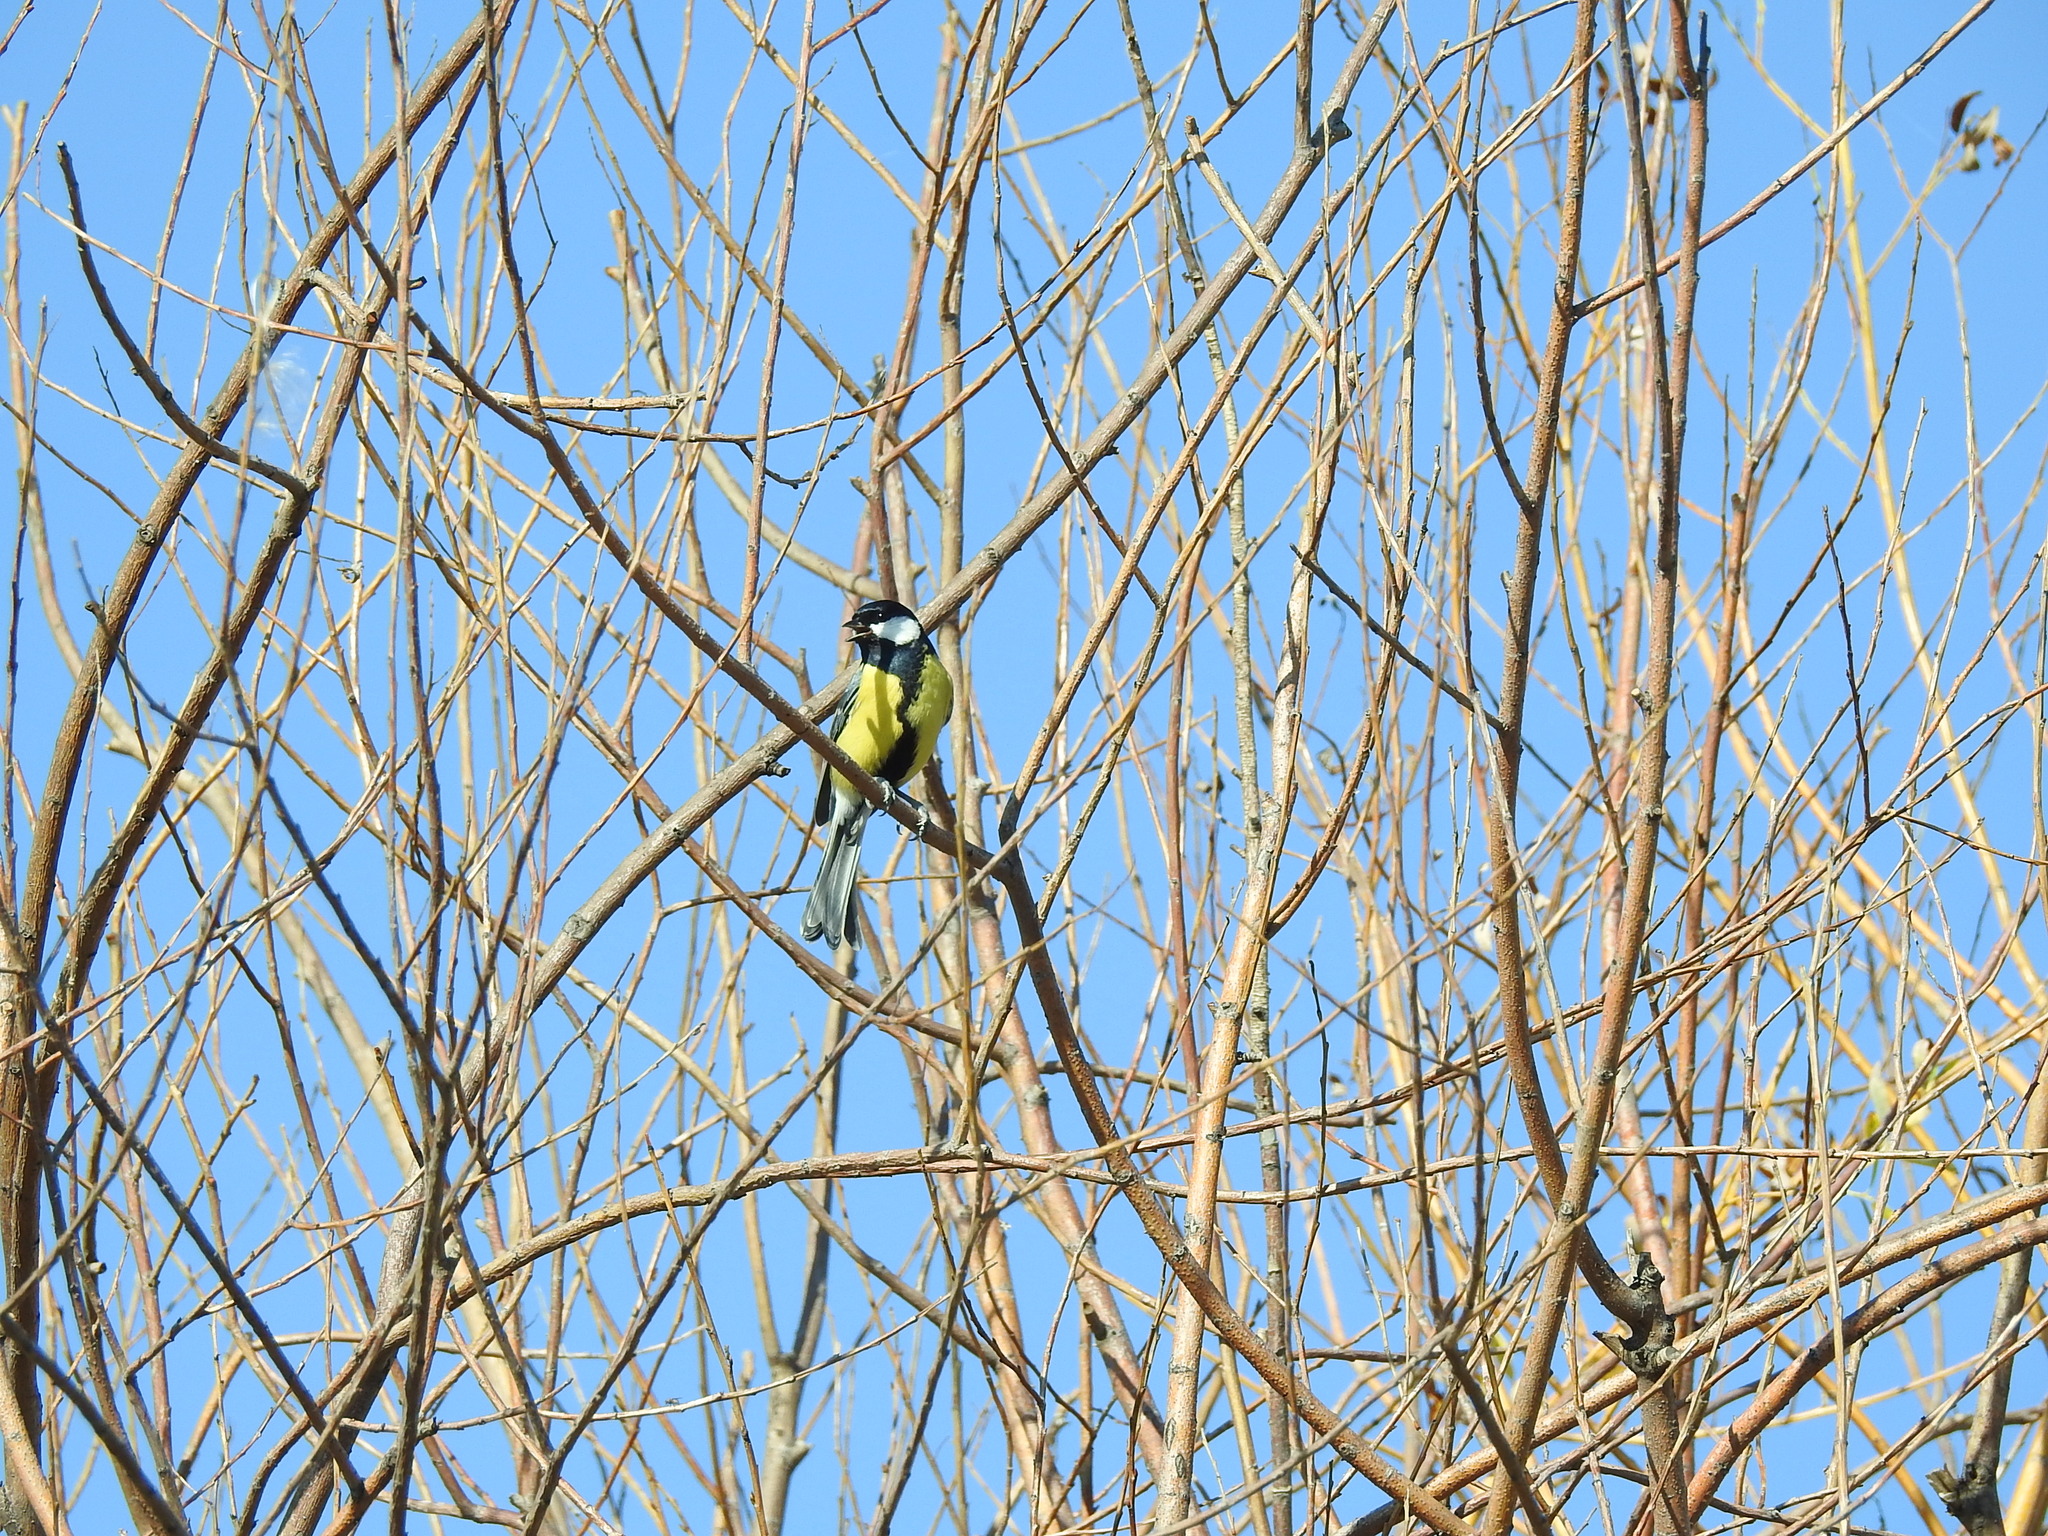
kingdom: Animalia
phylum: Chordata
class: Aves
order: Passeriformes
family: Paridae
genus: Parus
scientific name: Parus major
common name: Great tit
